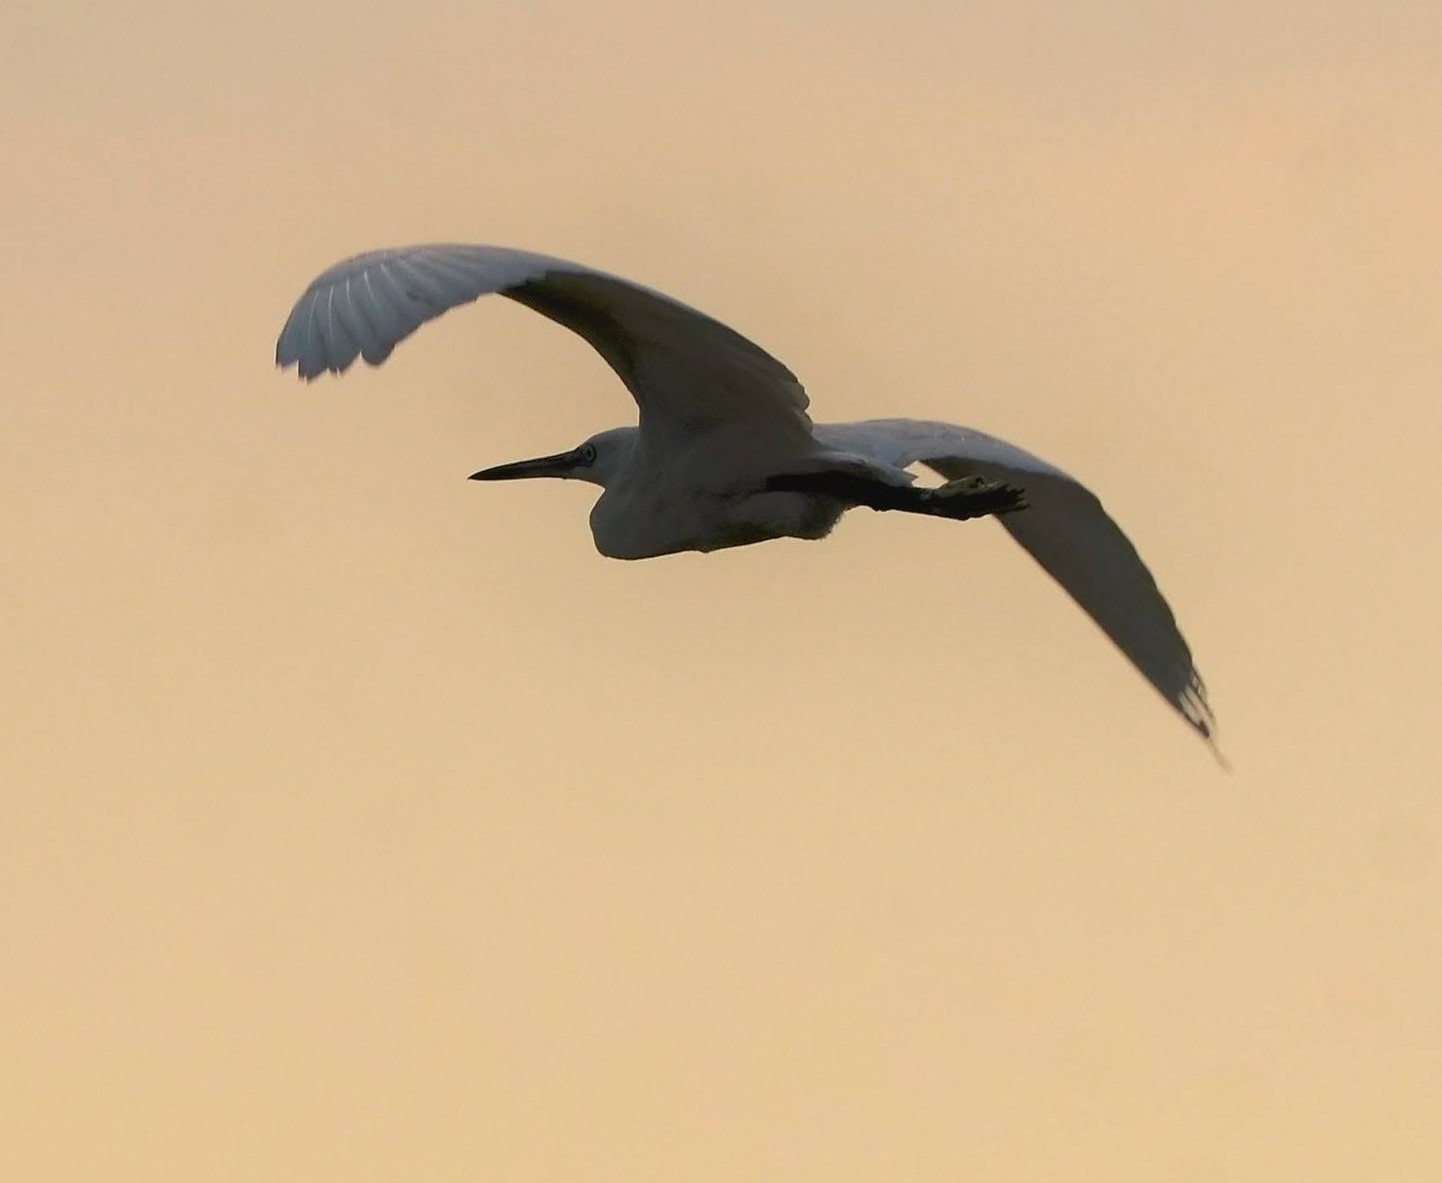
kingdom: Animalia
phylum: Chordata
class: Aves
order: Pelecaniformes
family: Ardeidae
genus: Egretta
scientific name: Egretta garzetta
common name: Little egret
